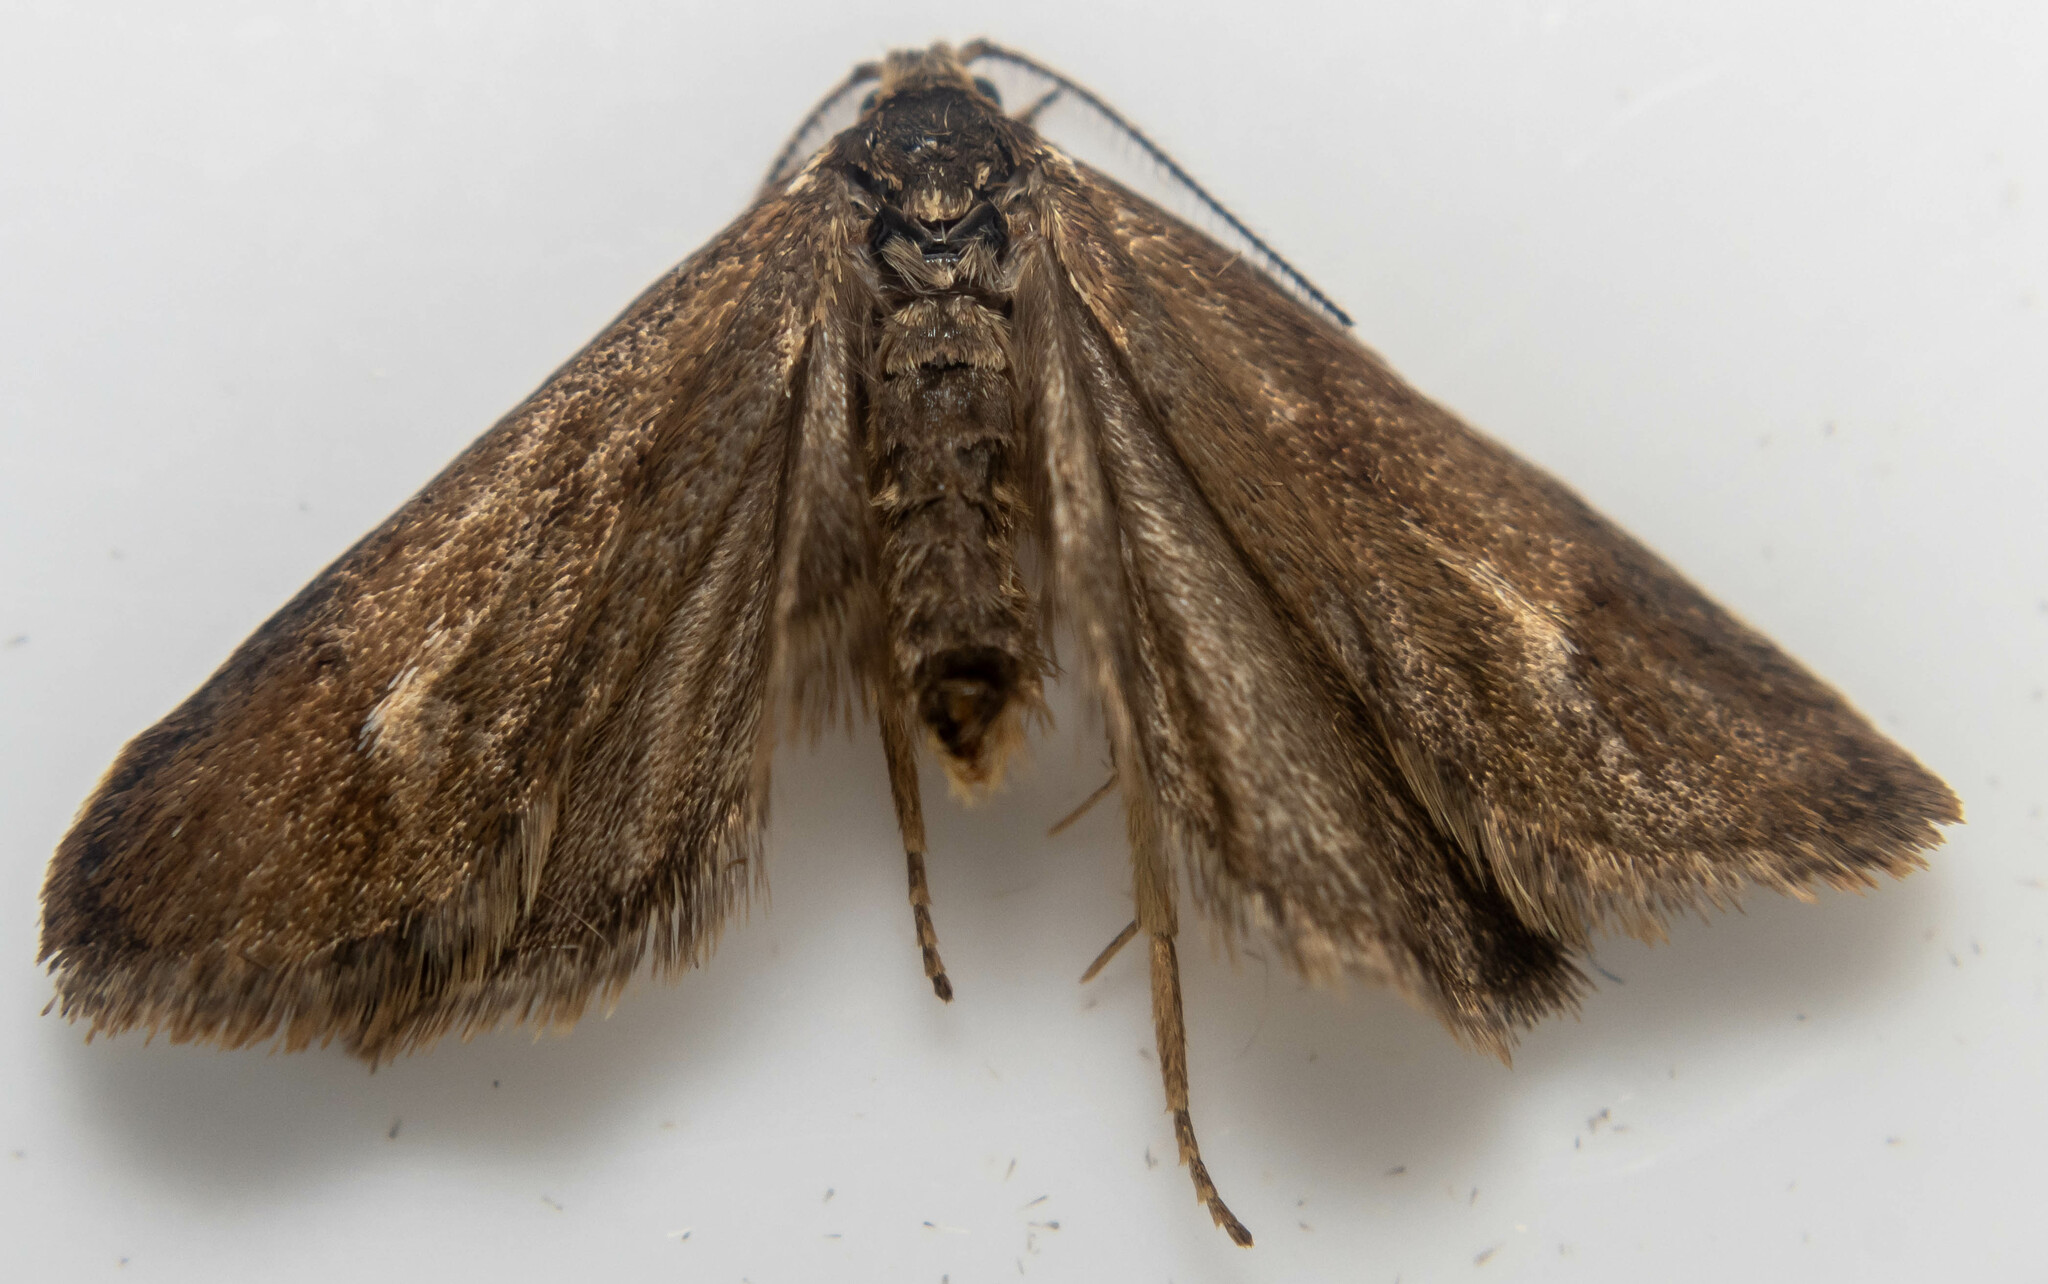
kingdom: Animalia
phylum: Arthropoda
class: Insecta
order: Lepidoptera
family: Lypusidae
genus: Diurnea
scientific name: Diurnea lipsiella
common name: November tubic
